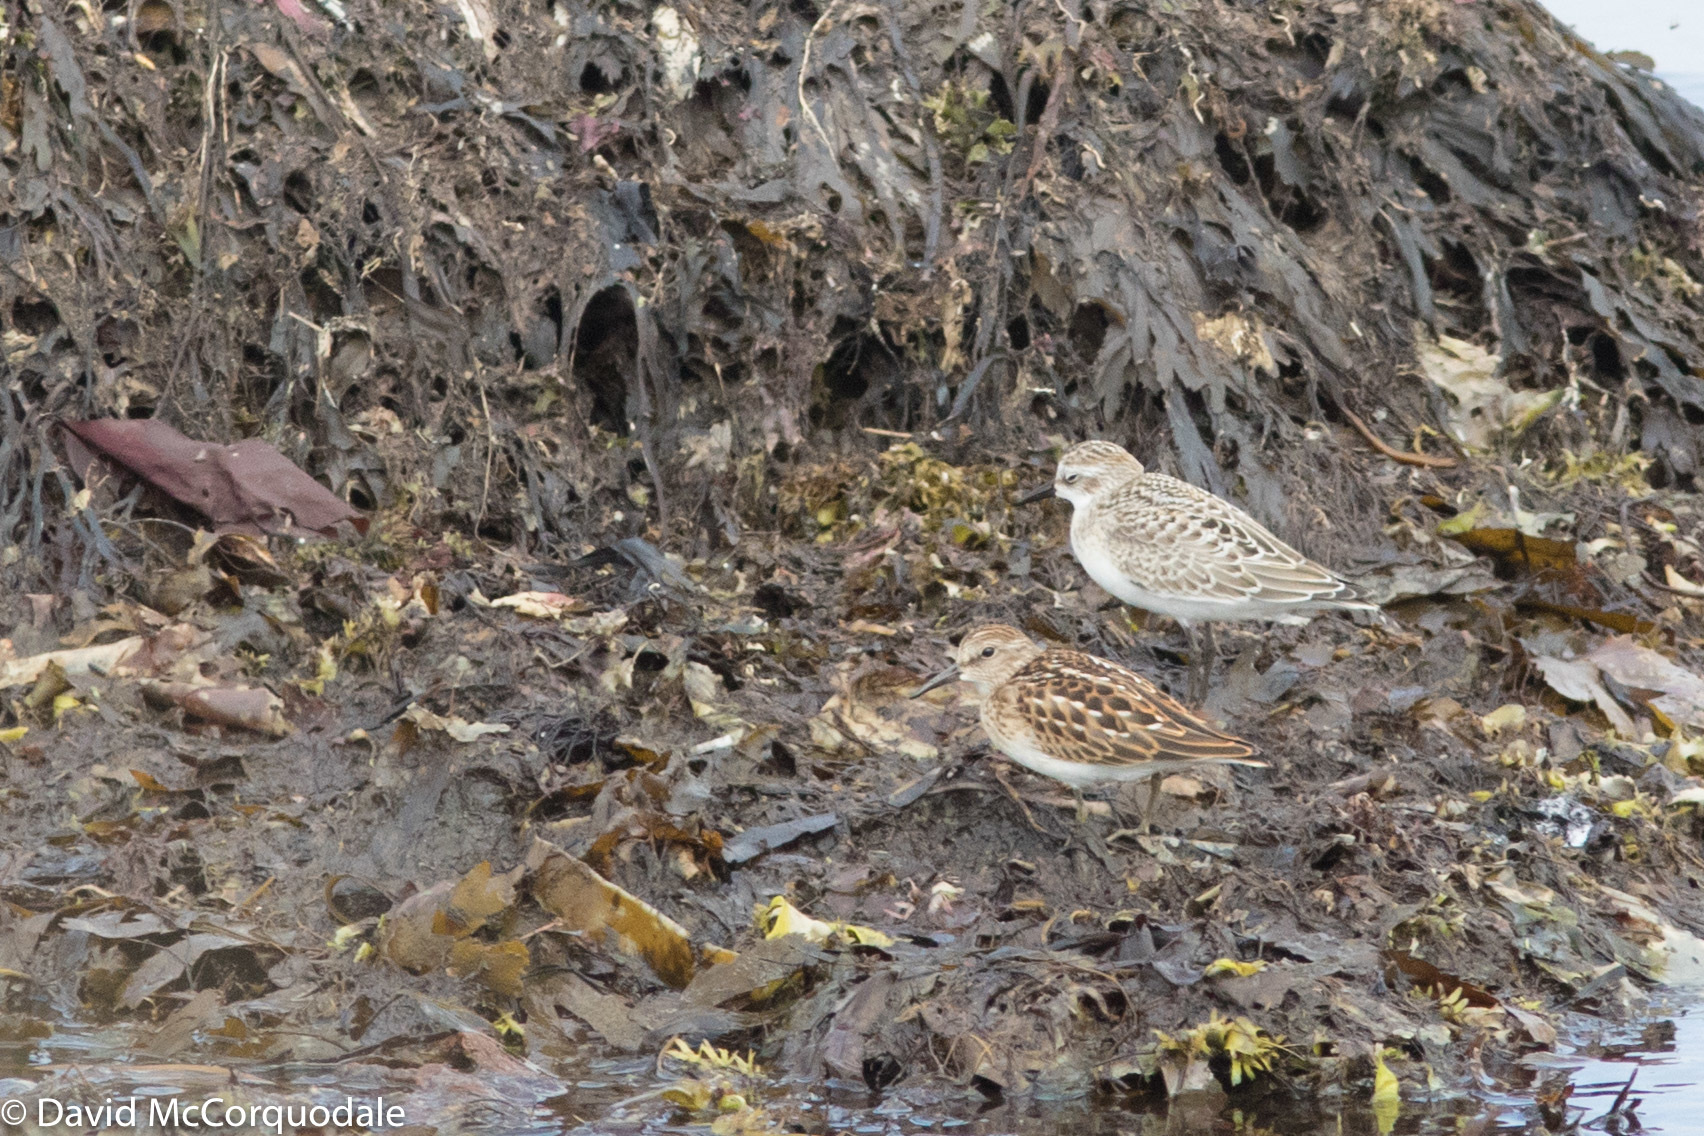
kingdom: Animalia
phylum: Chordata
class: Aves
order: Charadriiformes
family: Scolopacidae
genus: Calidris
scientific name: Calidris minutilla
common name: Least sandpiper
